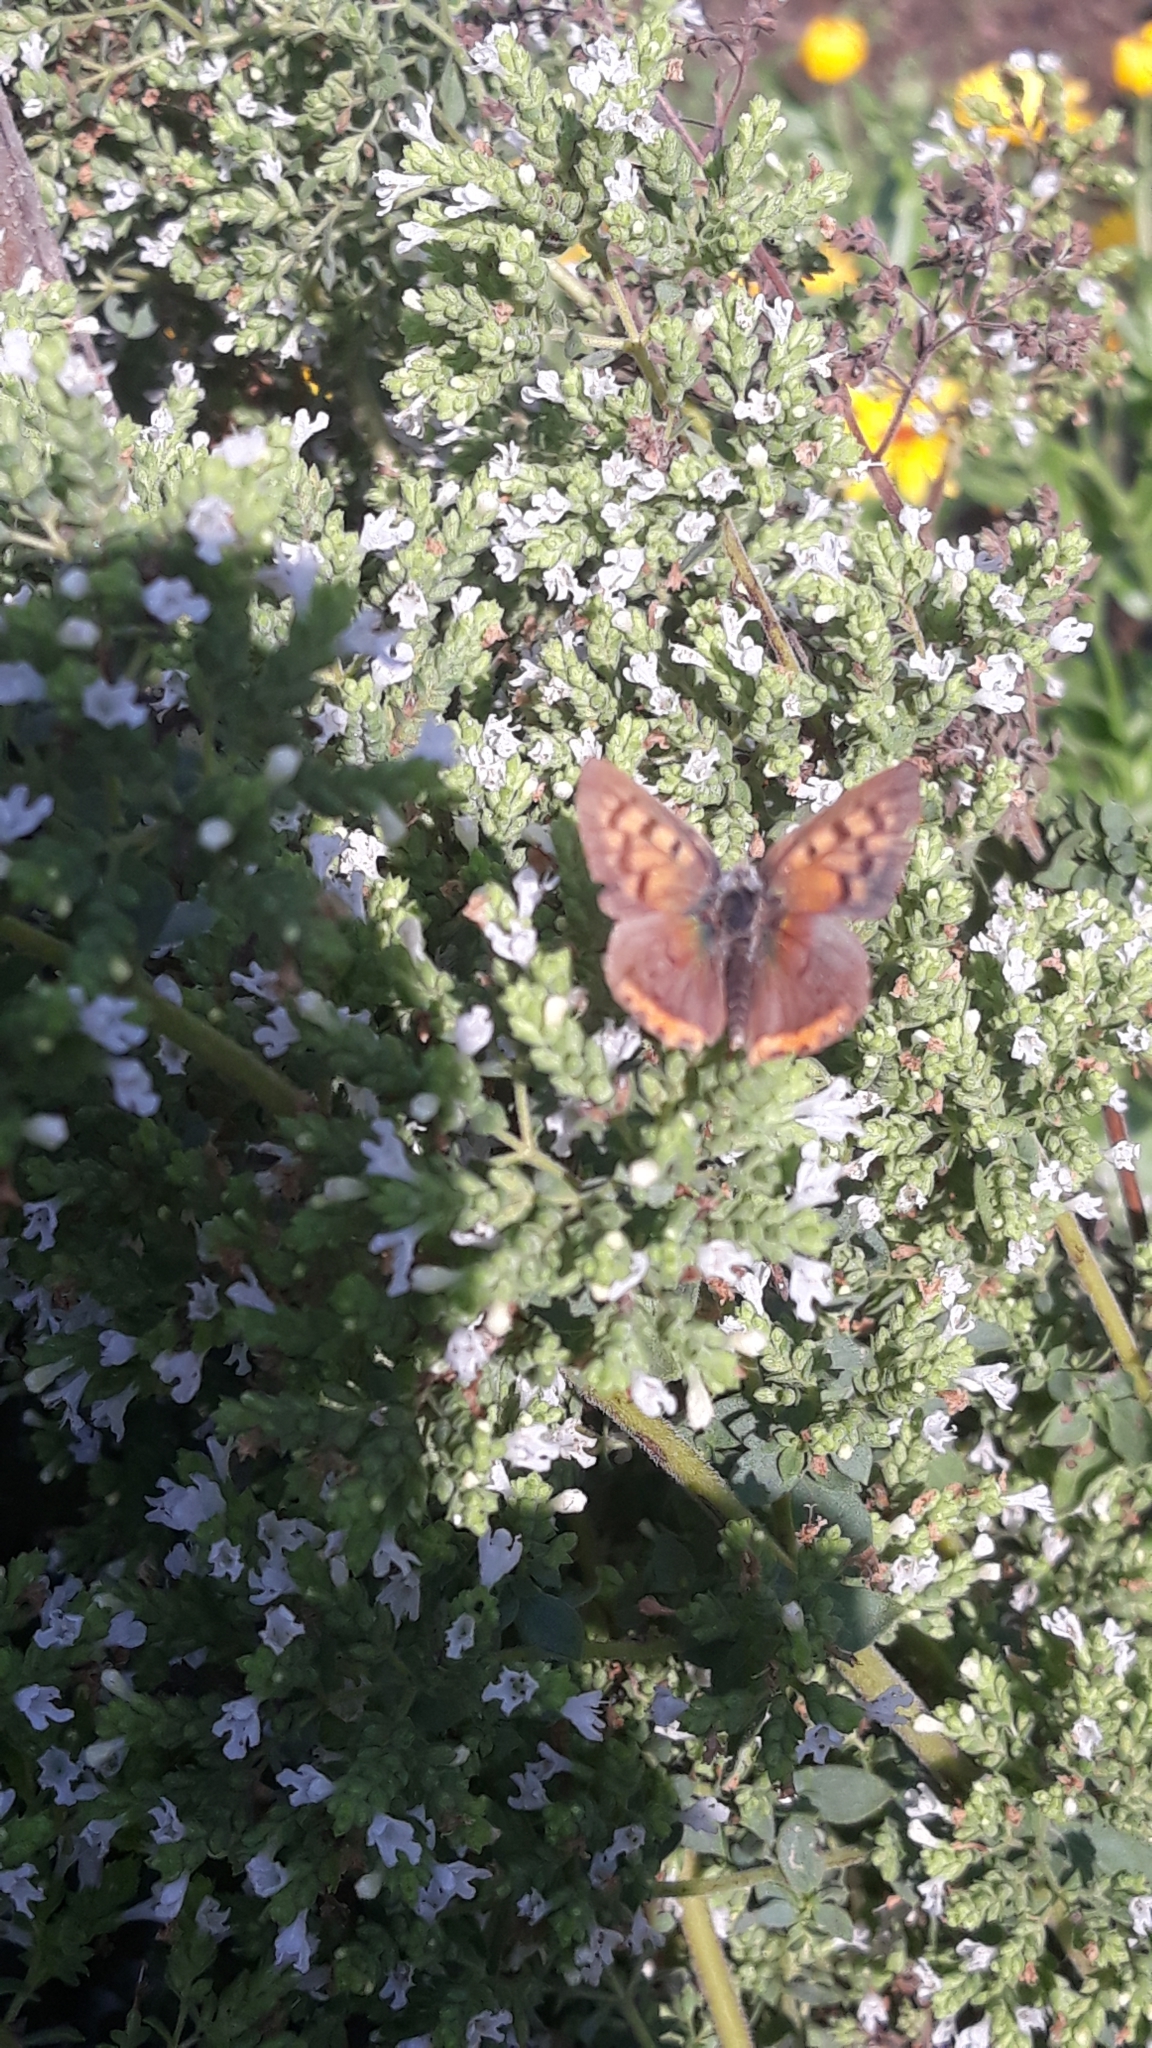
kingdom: Animalia
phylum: Arthropoda
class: Insecta
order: Lepidoptera
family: Lycaenidae
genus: Lycaena
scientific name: Lycaena phlaeas
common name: Small copper
